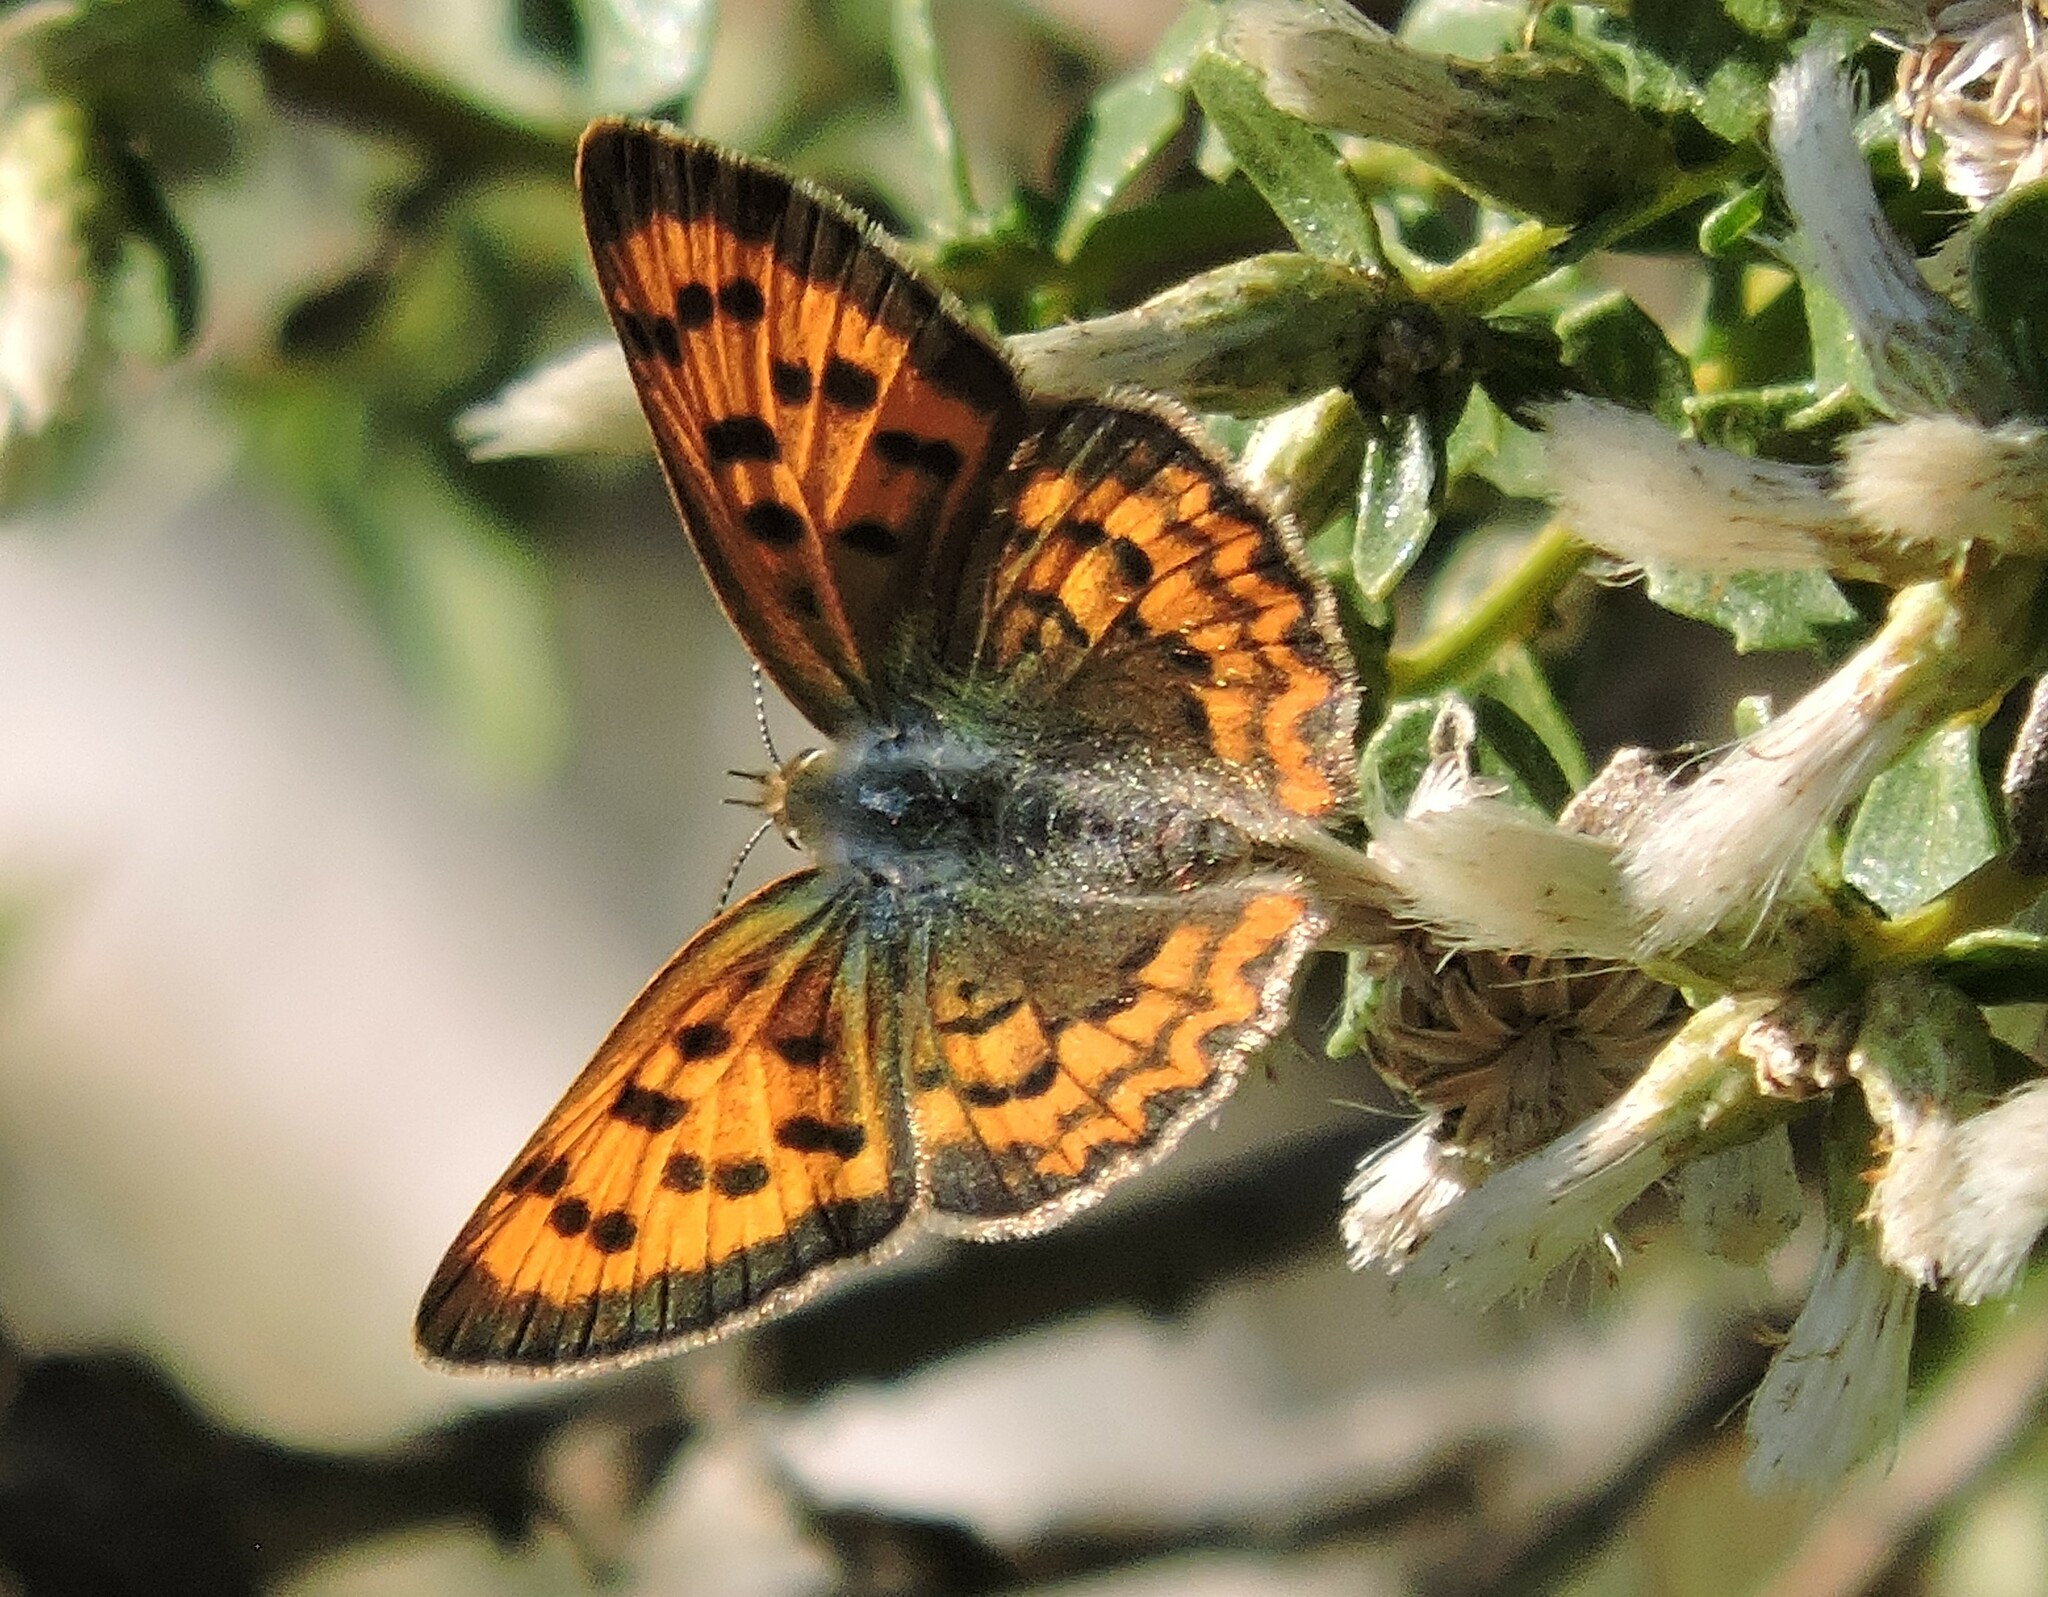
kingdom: Animalia
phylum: Arthropoda
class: Insecta
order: Lepidoptera
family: Lycaenidae
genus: Tharsalea
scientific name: Tharsalea helloides
